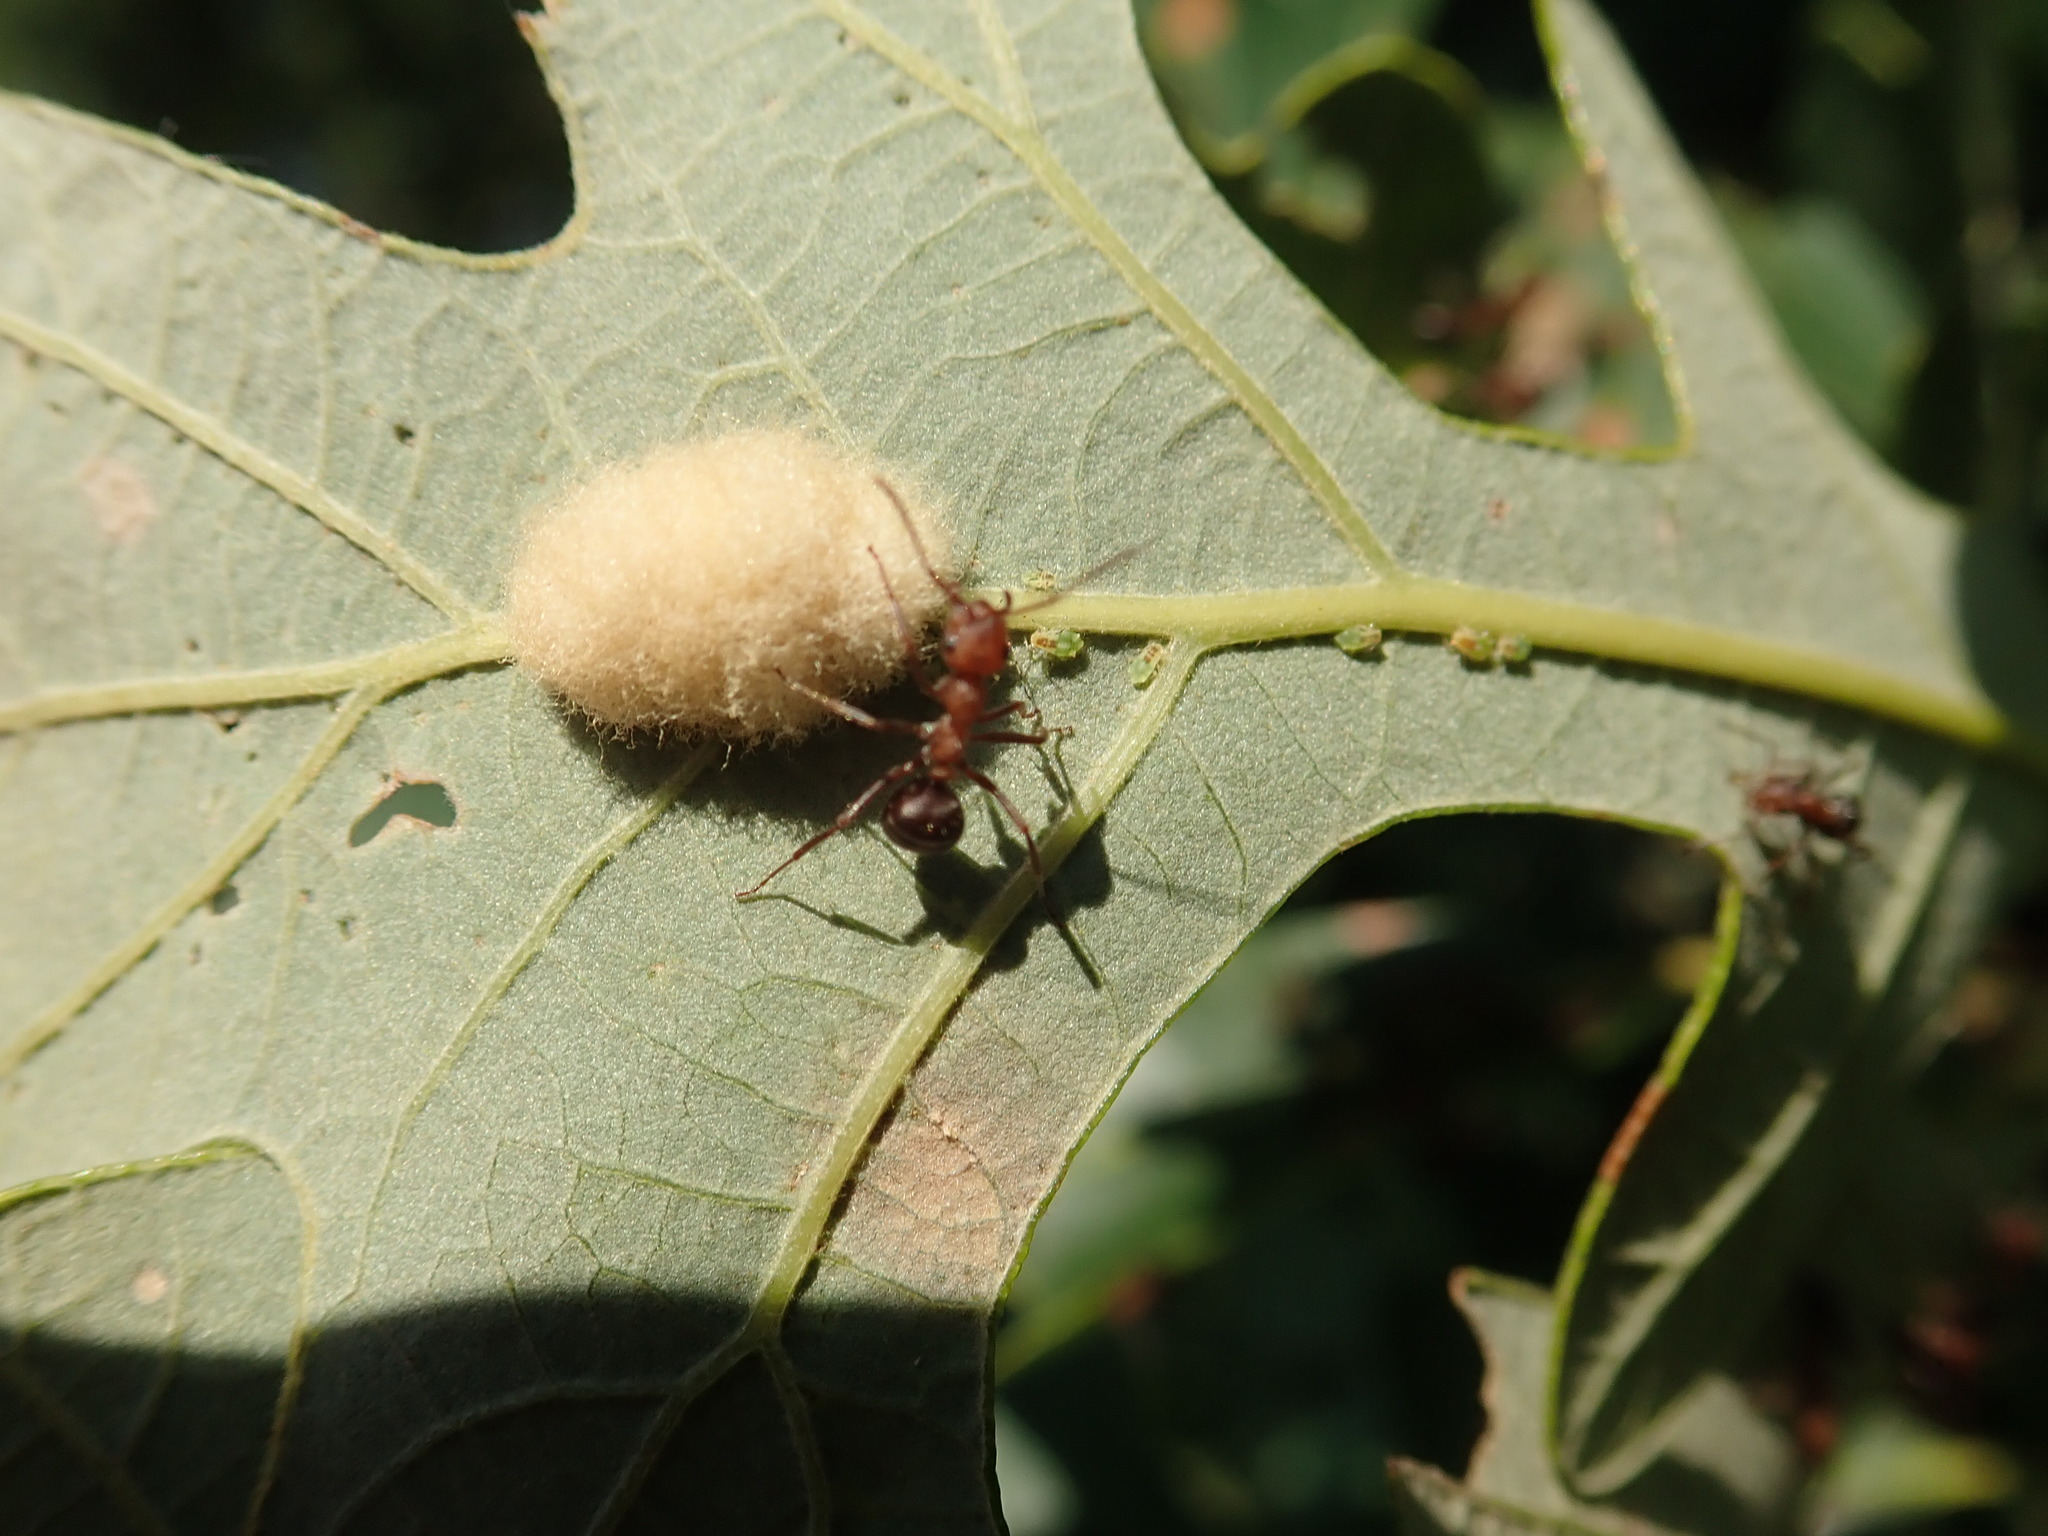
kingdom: Animalia
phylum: Arthropoda
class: Insecta
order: Hymenoptera
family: Cynipidae
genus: Andricus
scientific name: Andricus Druon ignotum
